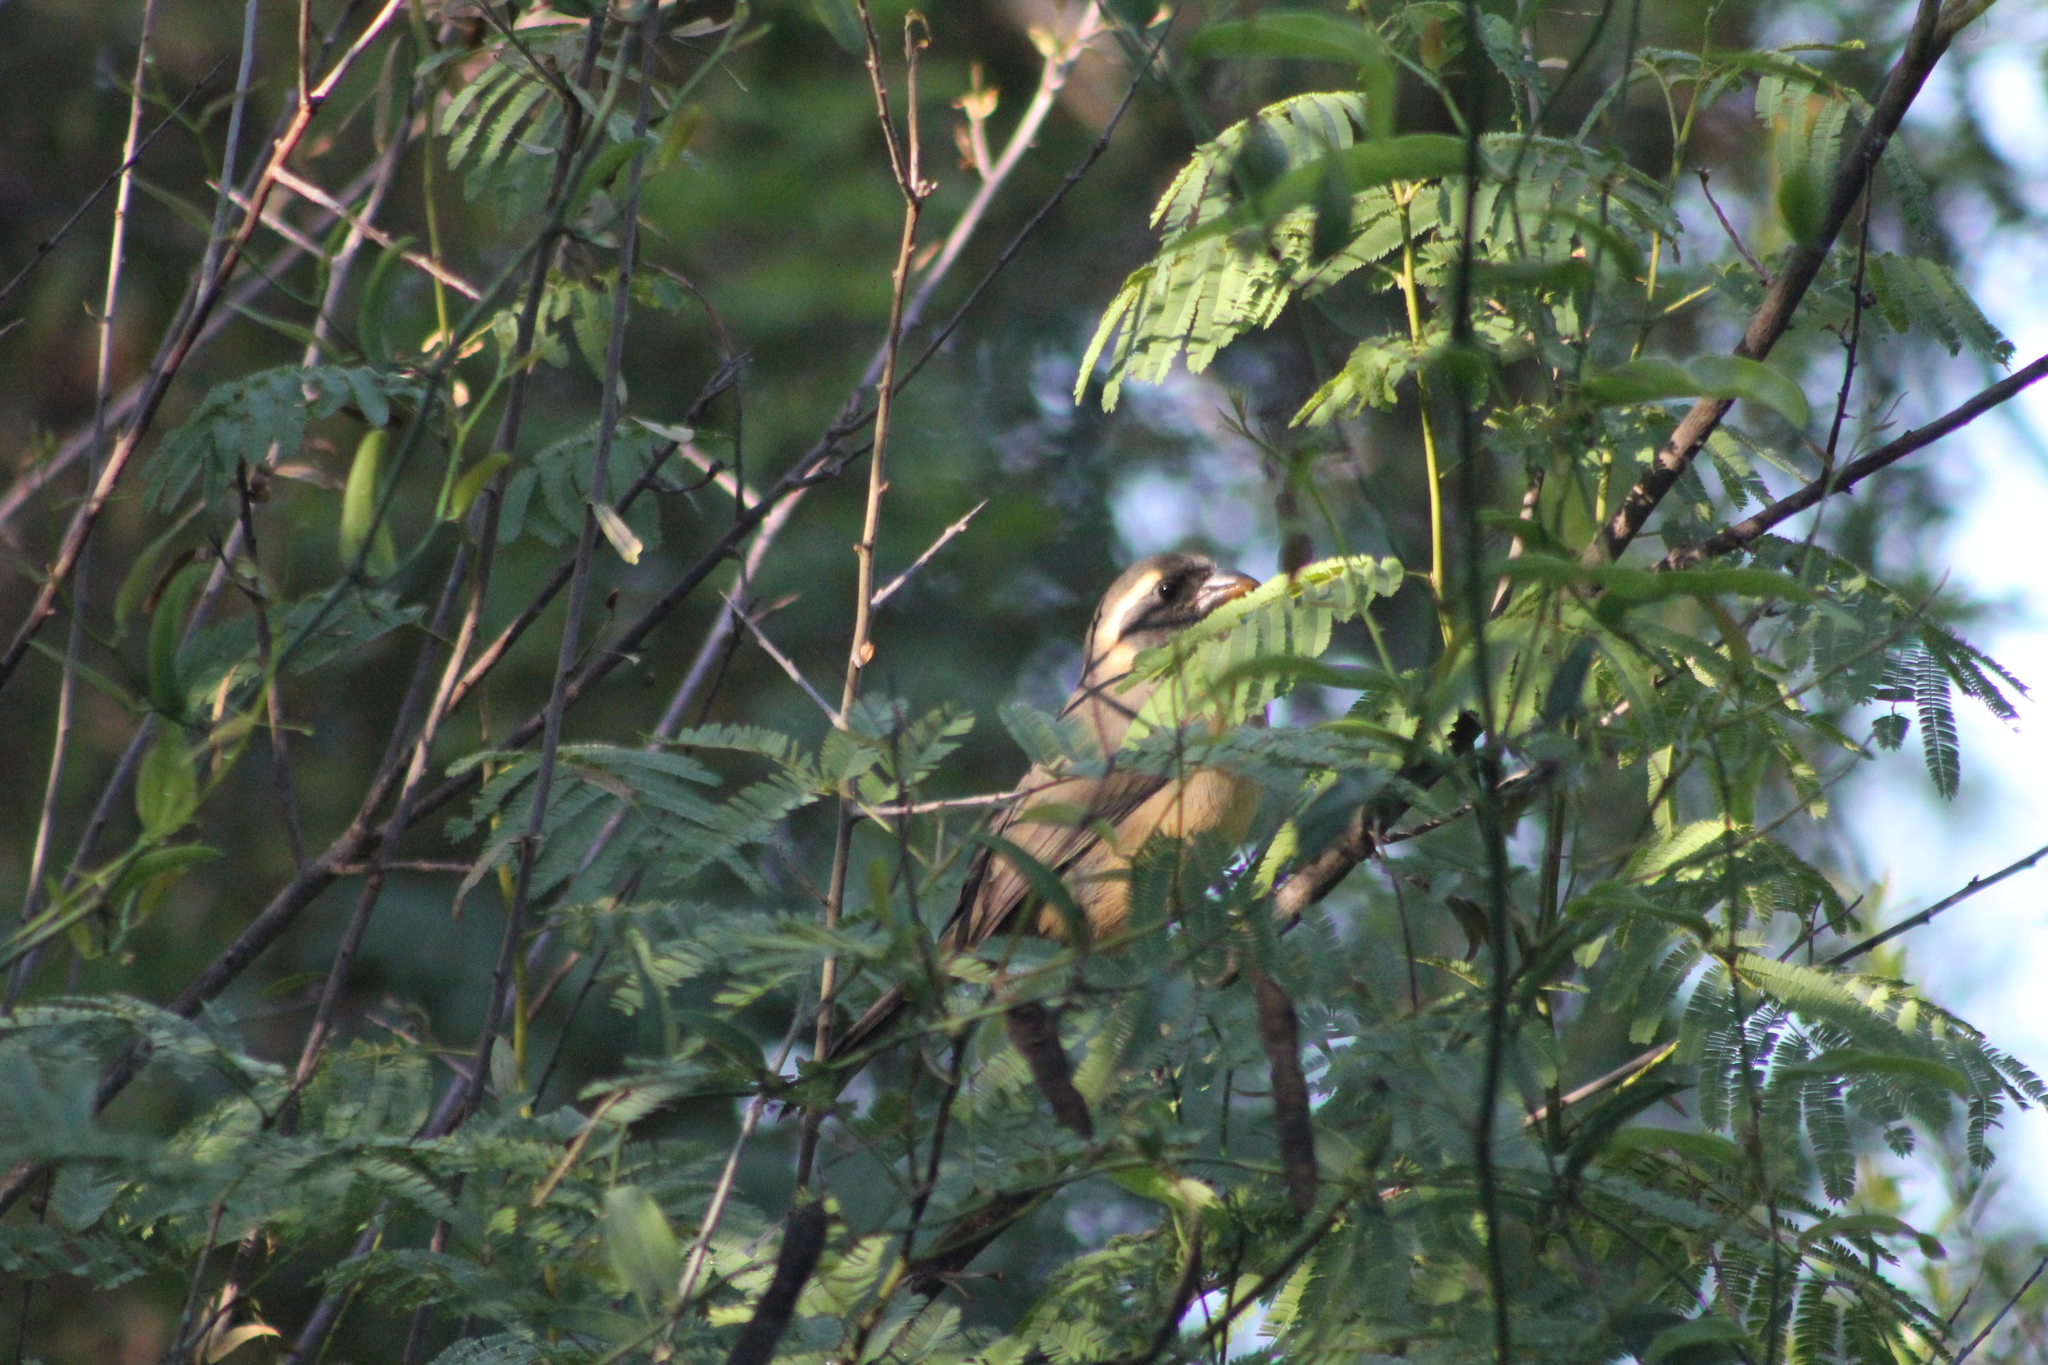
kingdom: Animalia
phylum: Chordata
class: Aves
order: Passeriformes
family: Thraupidae
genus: Saltator
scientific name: Saltator aurantiirostris
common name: Golden-billed saltator
